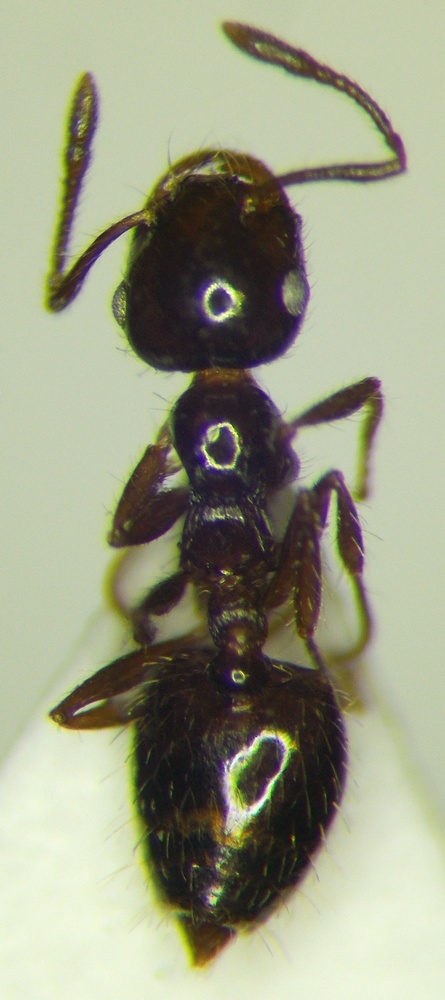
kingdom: Animalia
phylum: Arthropoda
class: Insecta
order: Hymenoptera
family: Formicidae
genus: Crematogaster
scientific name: Crematogaster sordidula
